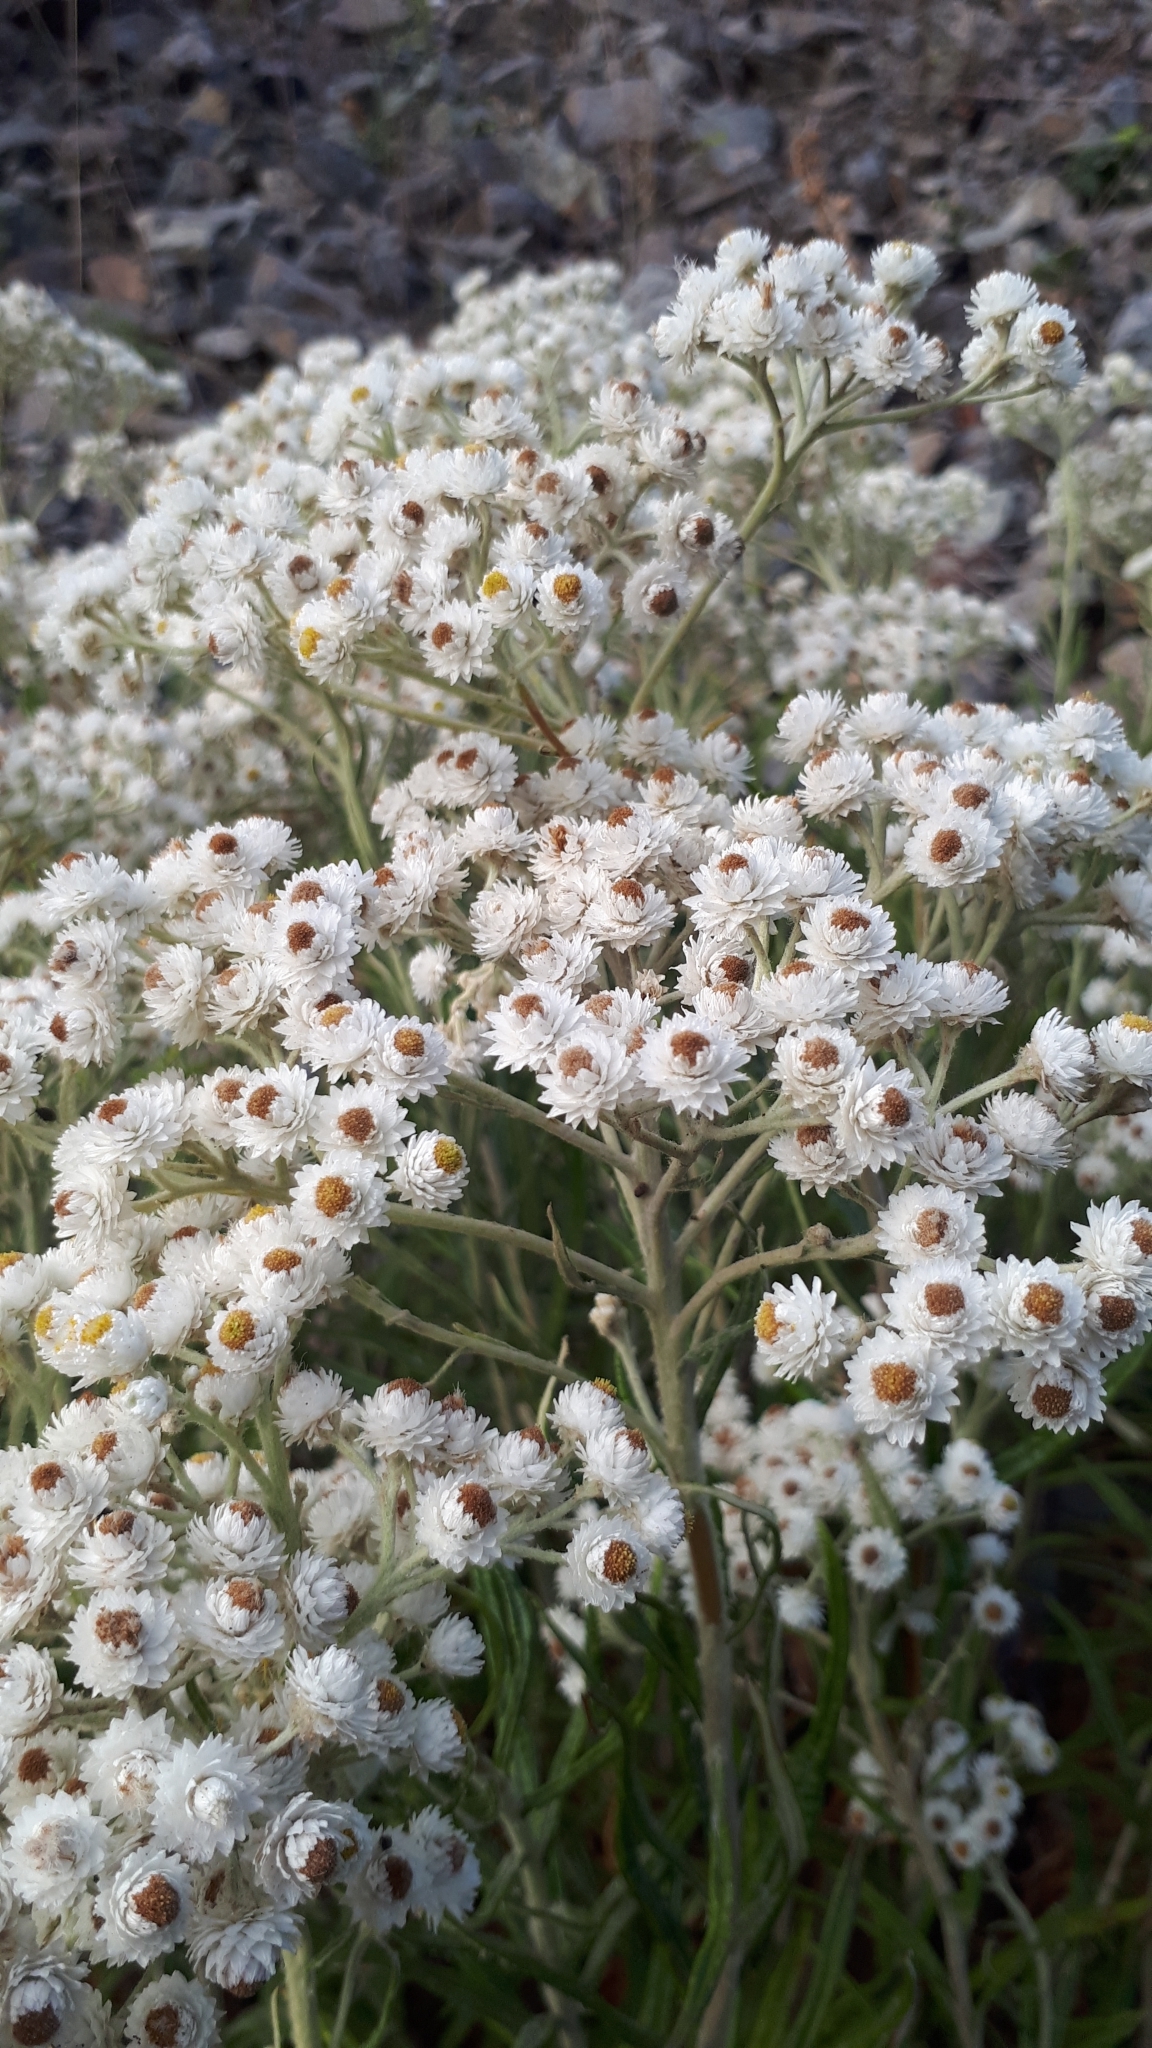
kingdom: Plantae
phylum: Tracheophyta
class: Magnoliopsida
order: Asterales
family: Asteraceae
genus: Anaphalis
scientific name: Anaphalis margaritacea
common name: Pearly everlasting
